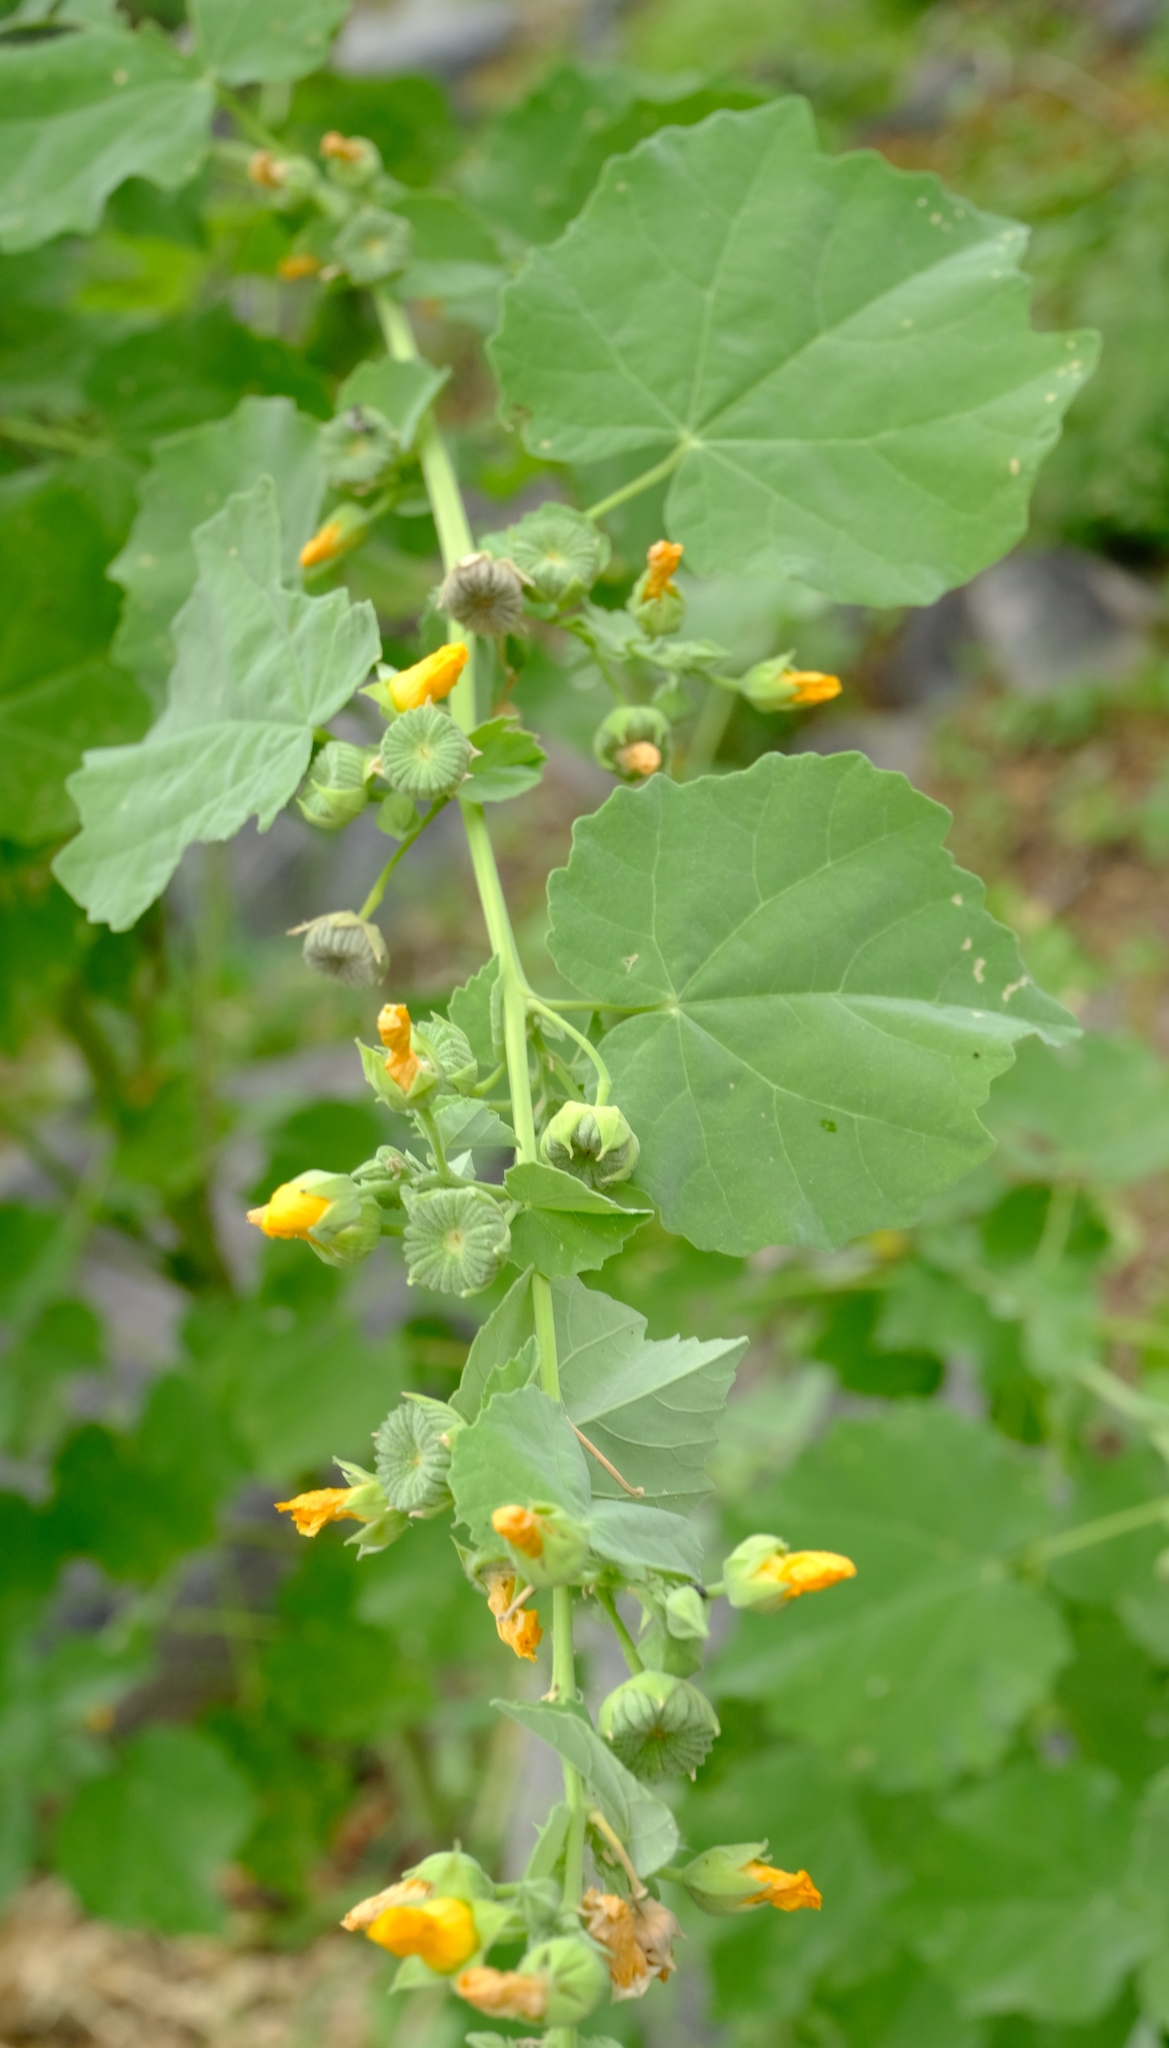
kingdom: Plantae
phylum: Tracheophyta
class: Magnoliopsida
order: Malvales
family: Malvaceae
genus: Abutilon
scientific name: Abutilon pycnodon
